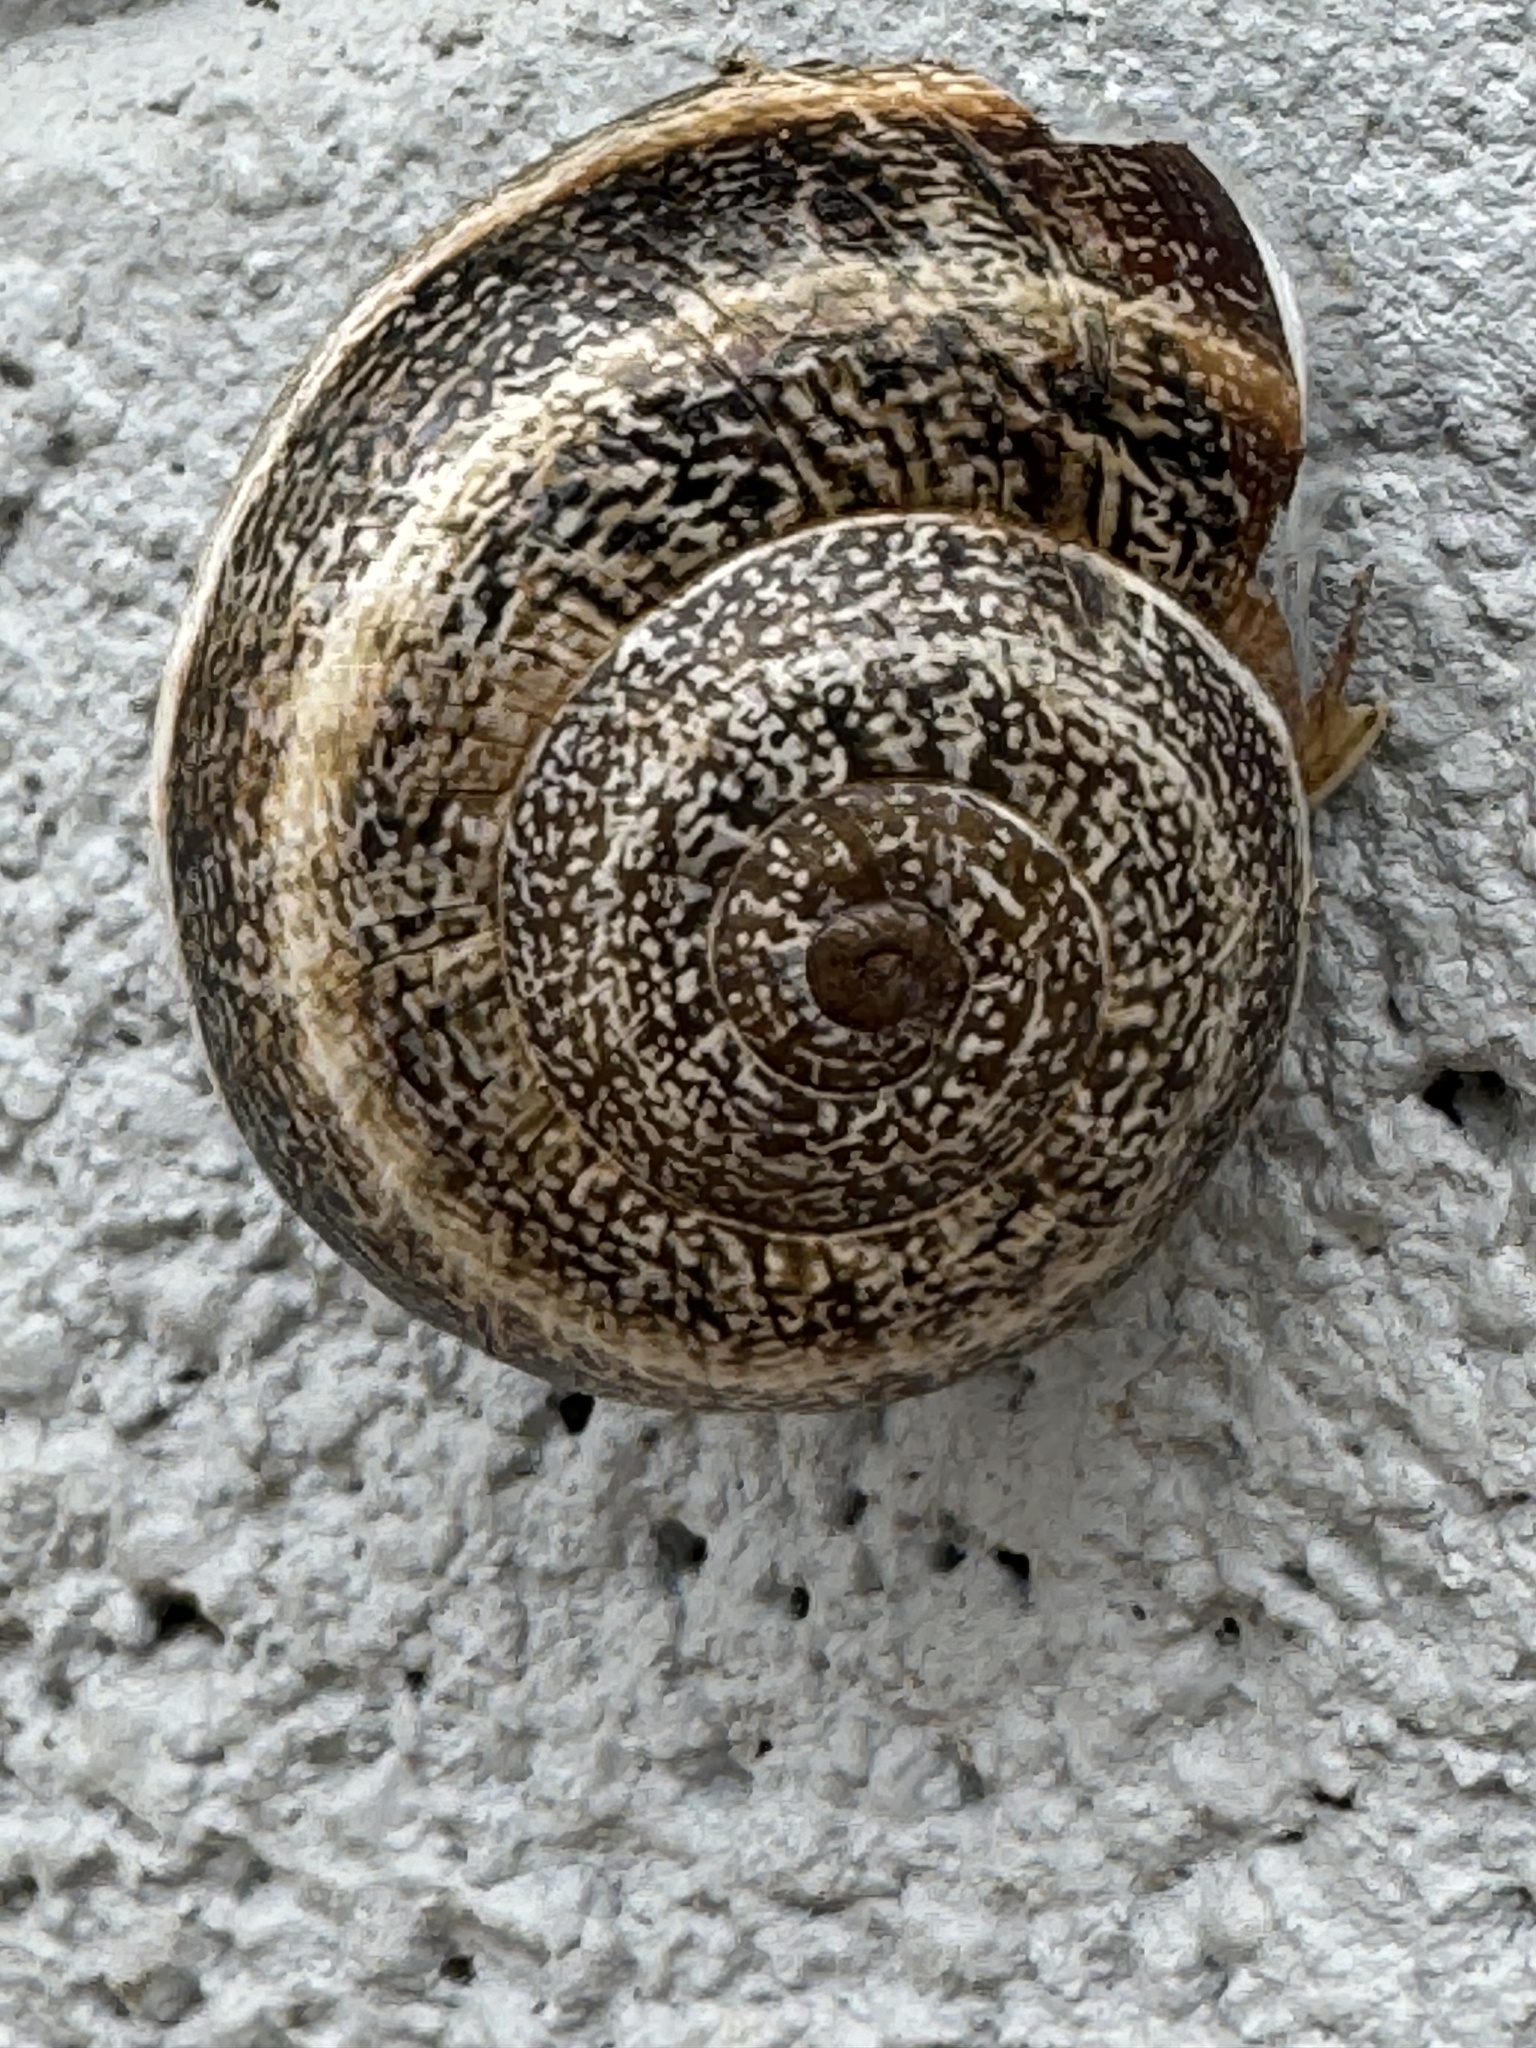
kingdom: Animalia
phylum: Mollusca
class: Gastropoda
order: Stylommatophora
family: Helicidae
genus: Otala
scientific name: Otala lactea
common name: Milk snail
